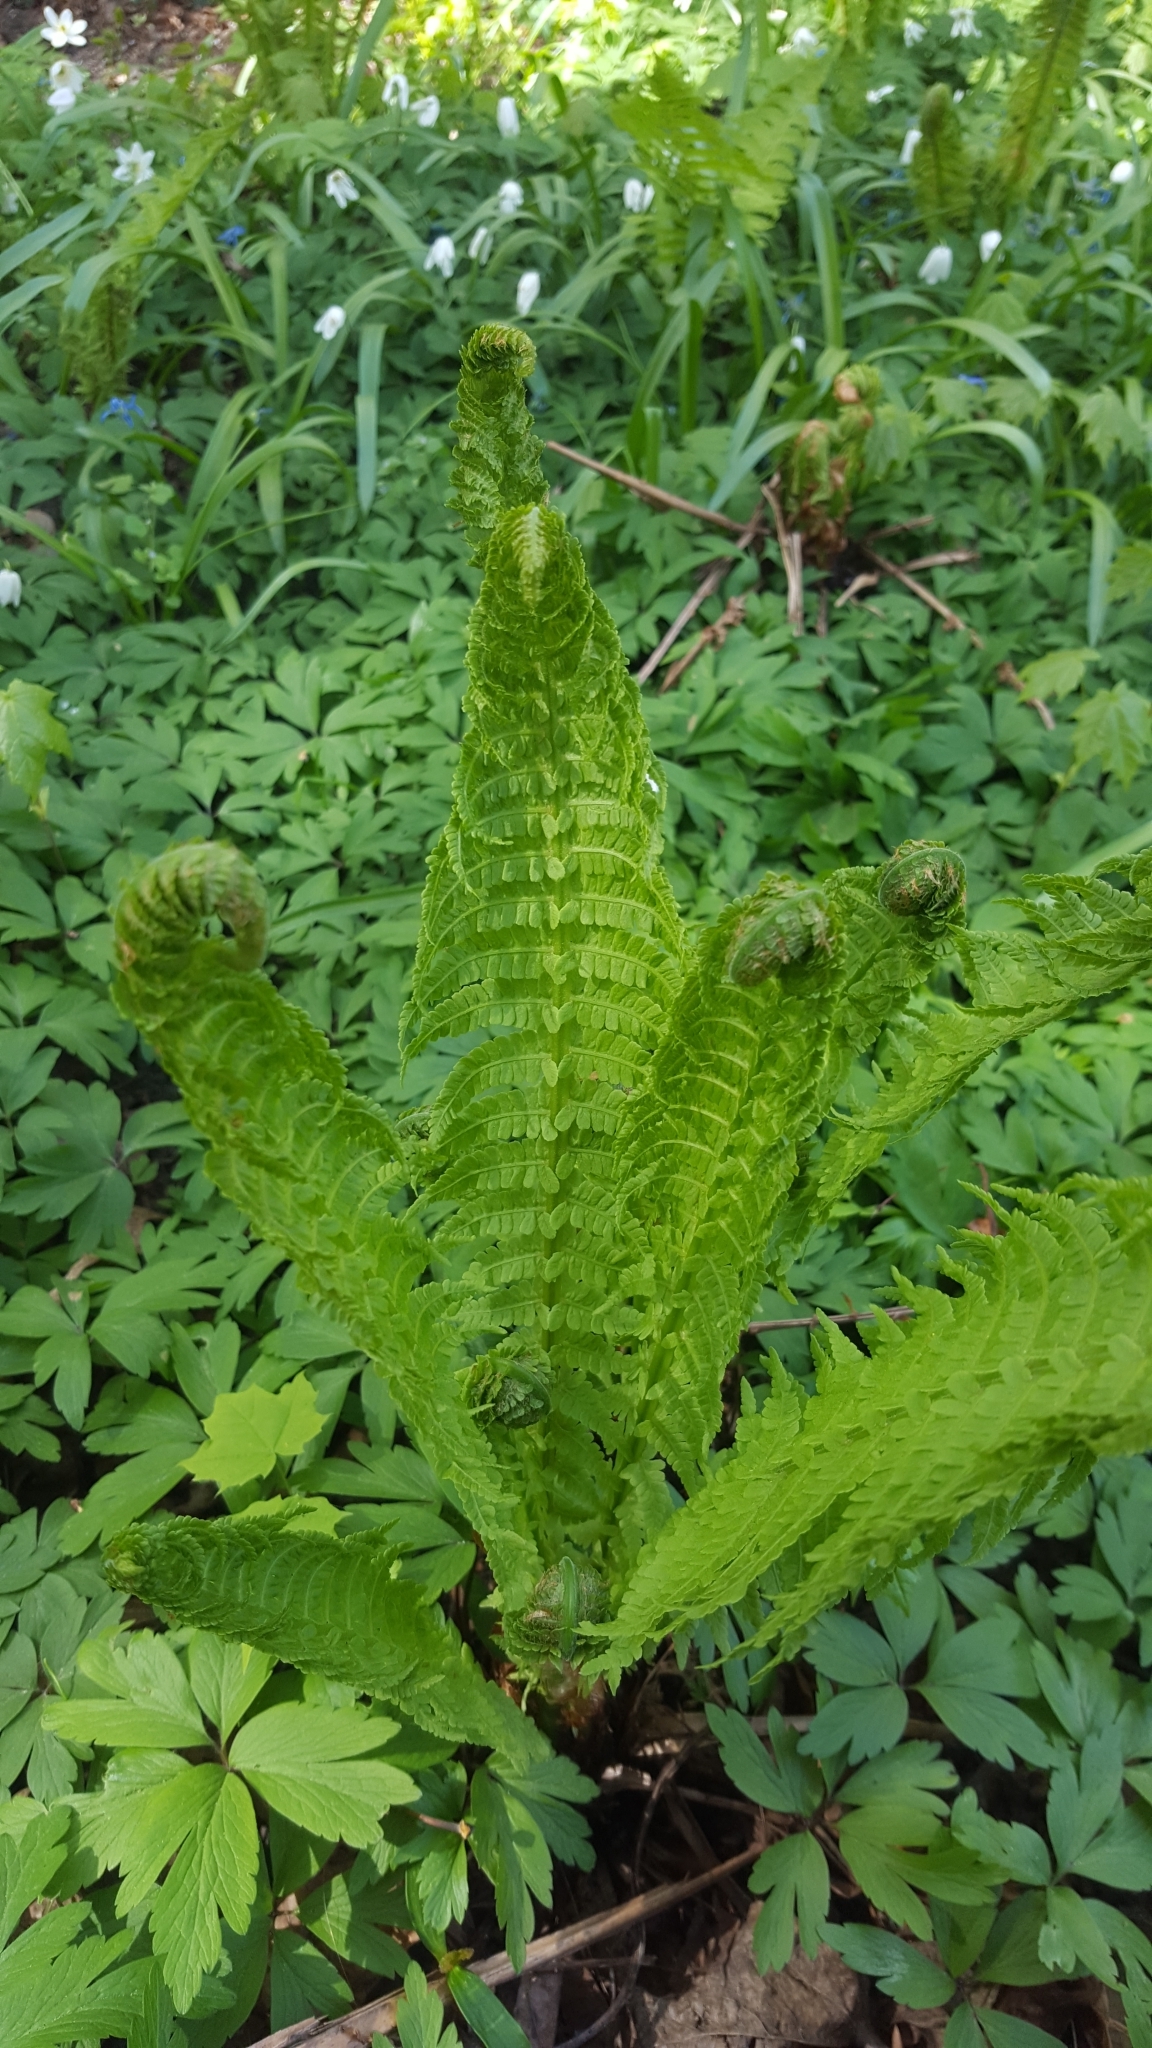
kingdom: Plantae
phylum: Tracheophyta
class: Polypodiopsida
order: Polypodiales
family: Onocleaceae
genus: Matteuccia
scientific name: Matteuccia struthiopteris
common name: Ostrich fern
